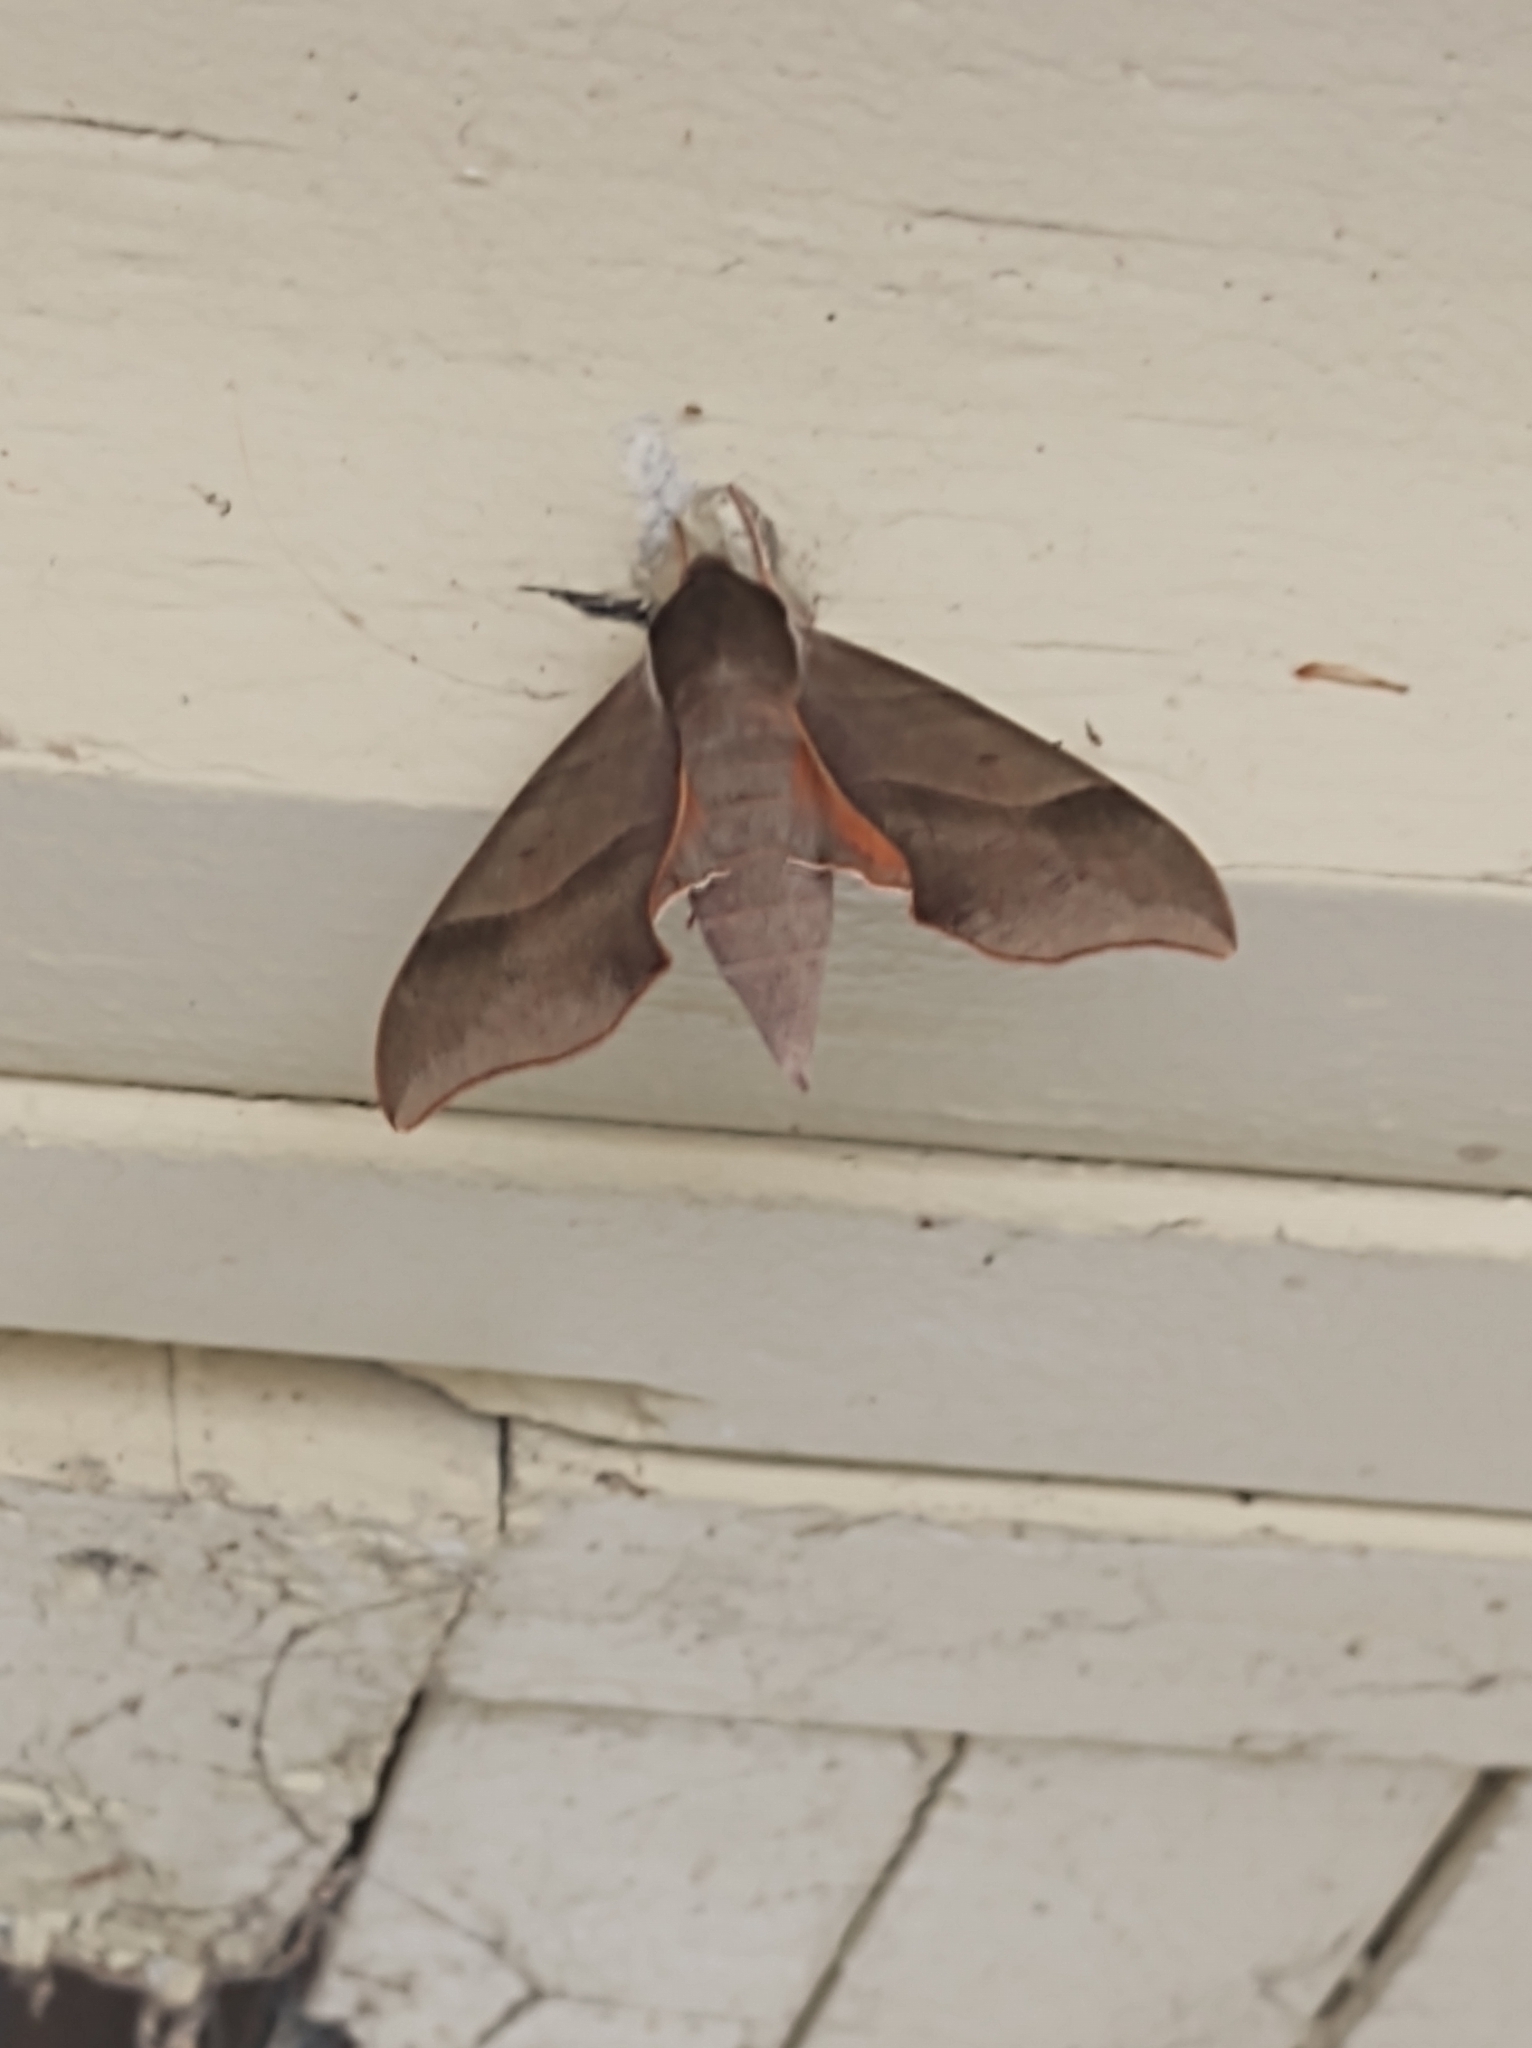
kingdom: Animalia
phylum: Arthropoda
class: Insecta
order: Lepidoptera
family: Sphingidae
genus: Darapsa
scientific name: Darapsa myron
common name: Hog sphinx
